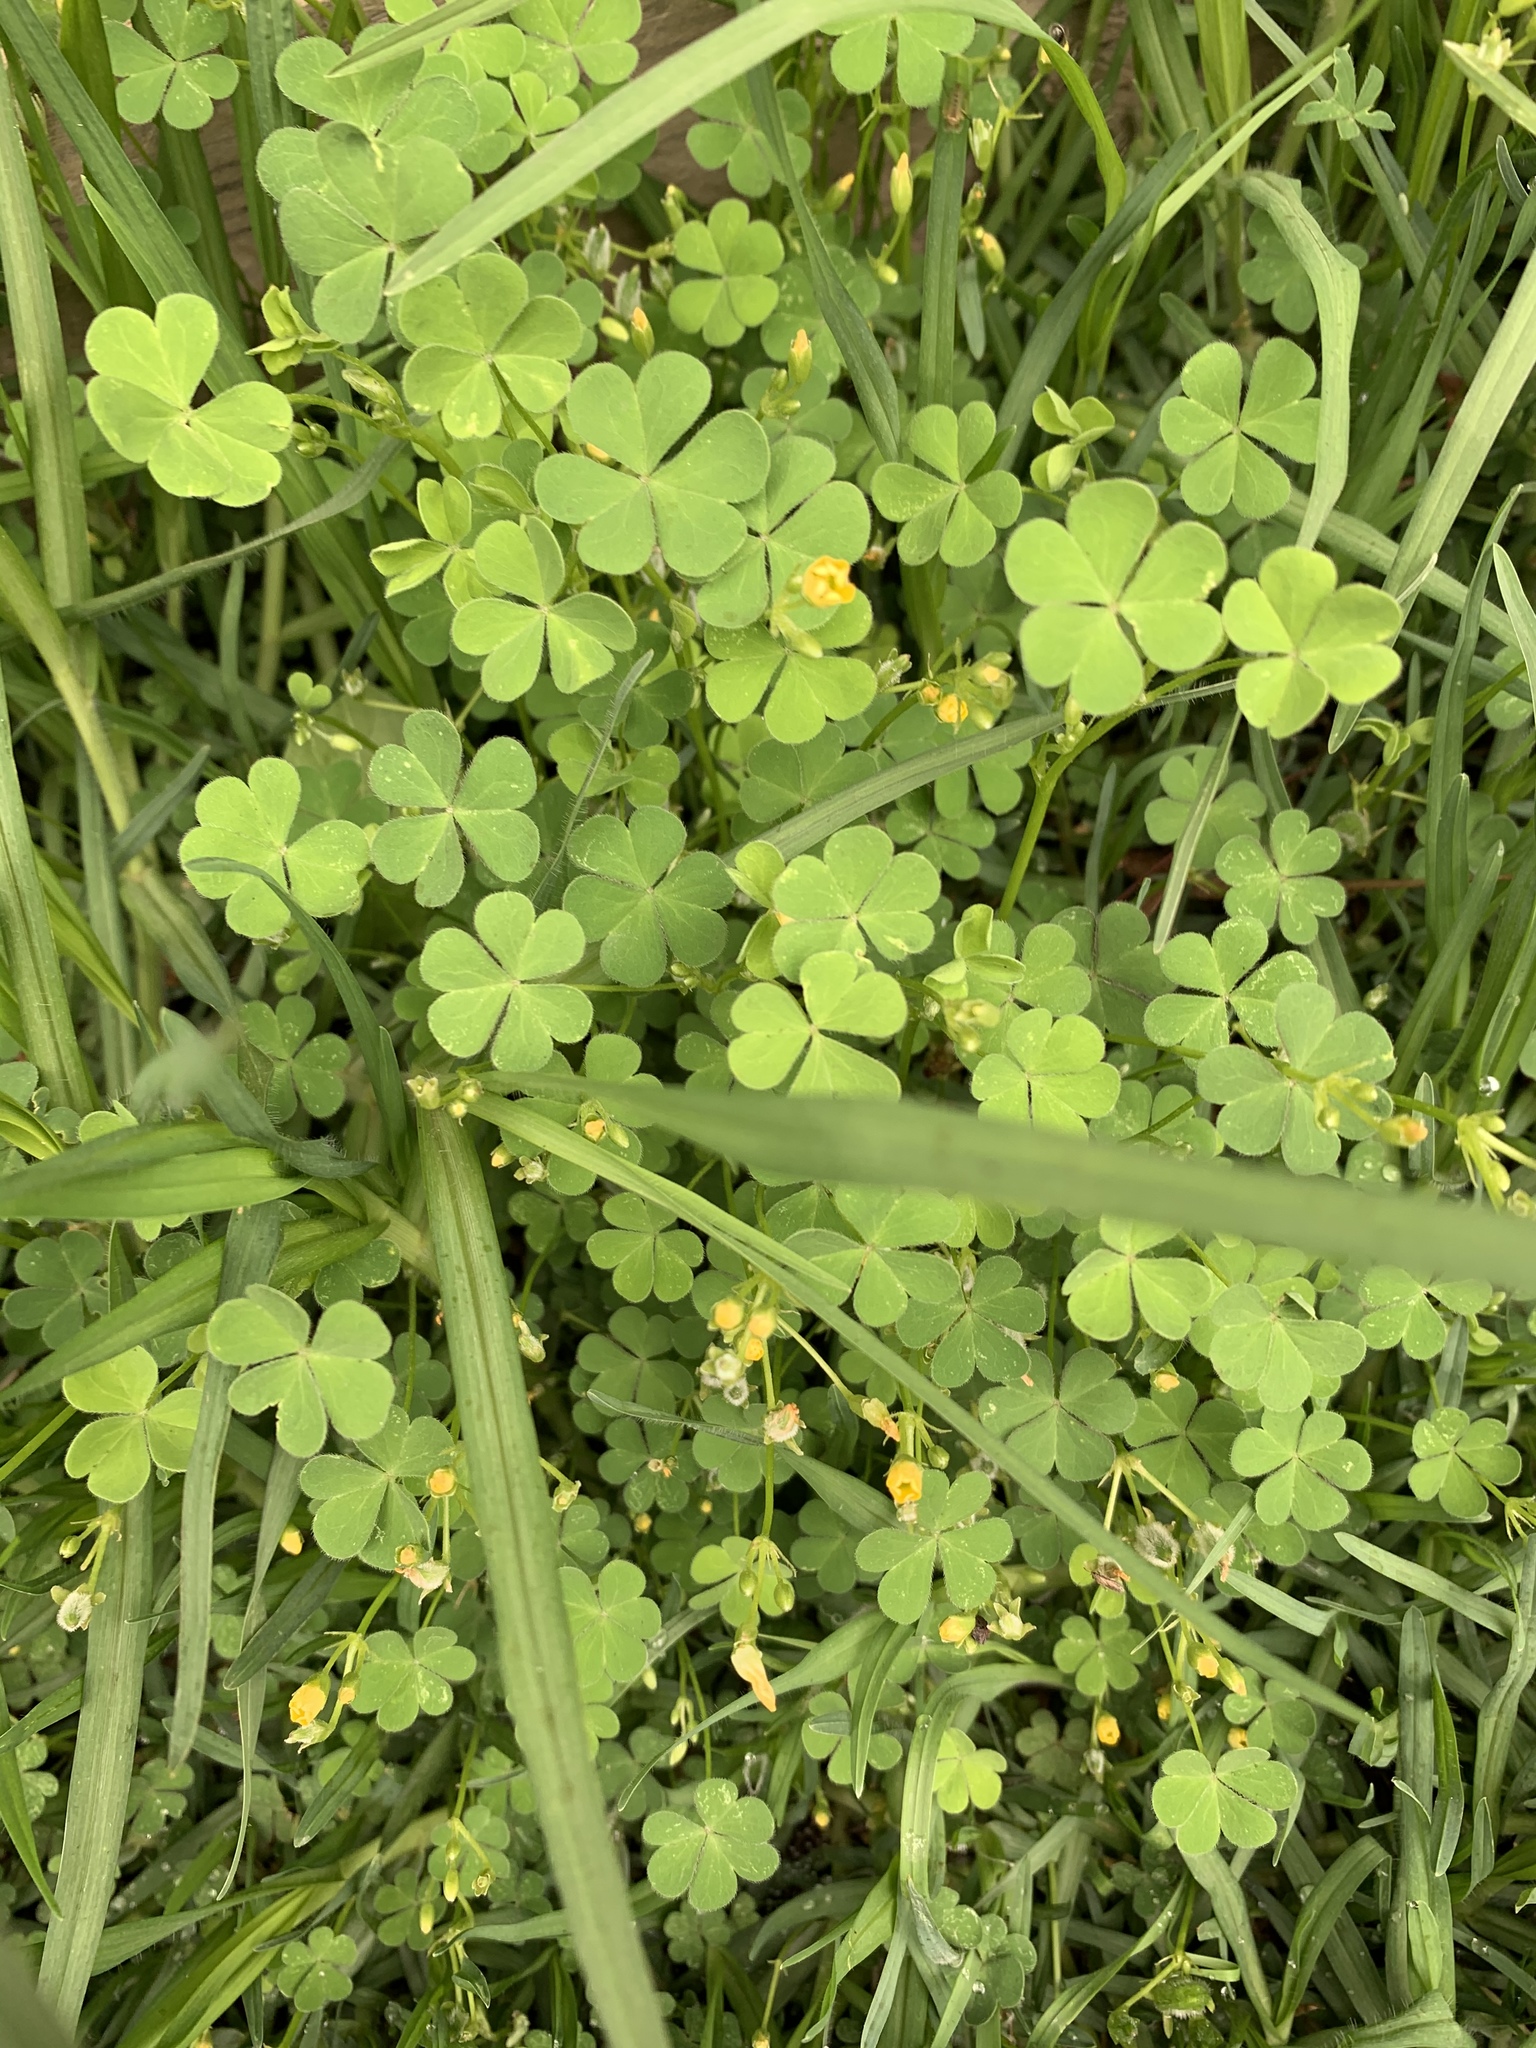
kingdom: Plantae
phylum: Tracheophyta
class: Magnoliopsida
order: Oxalidales
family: Oxalidaceae
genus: Oxalis
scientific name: Oxalis corniculata
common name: Procumbent yellow-sorrel
